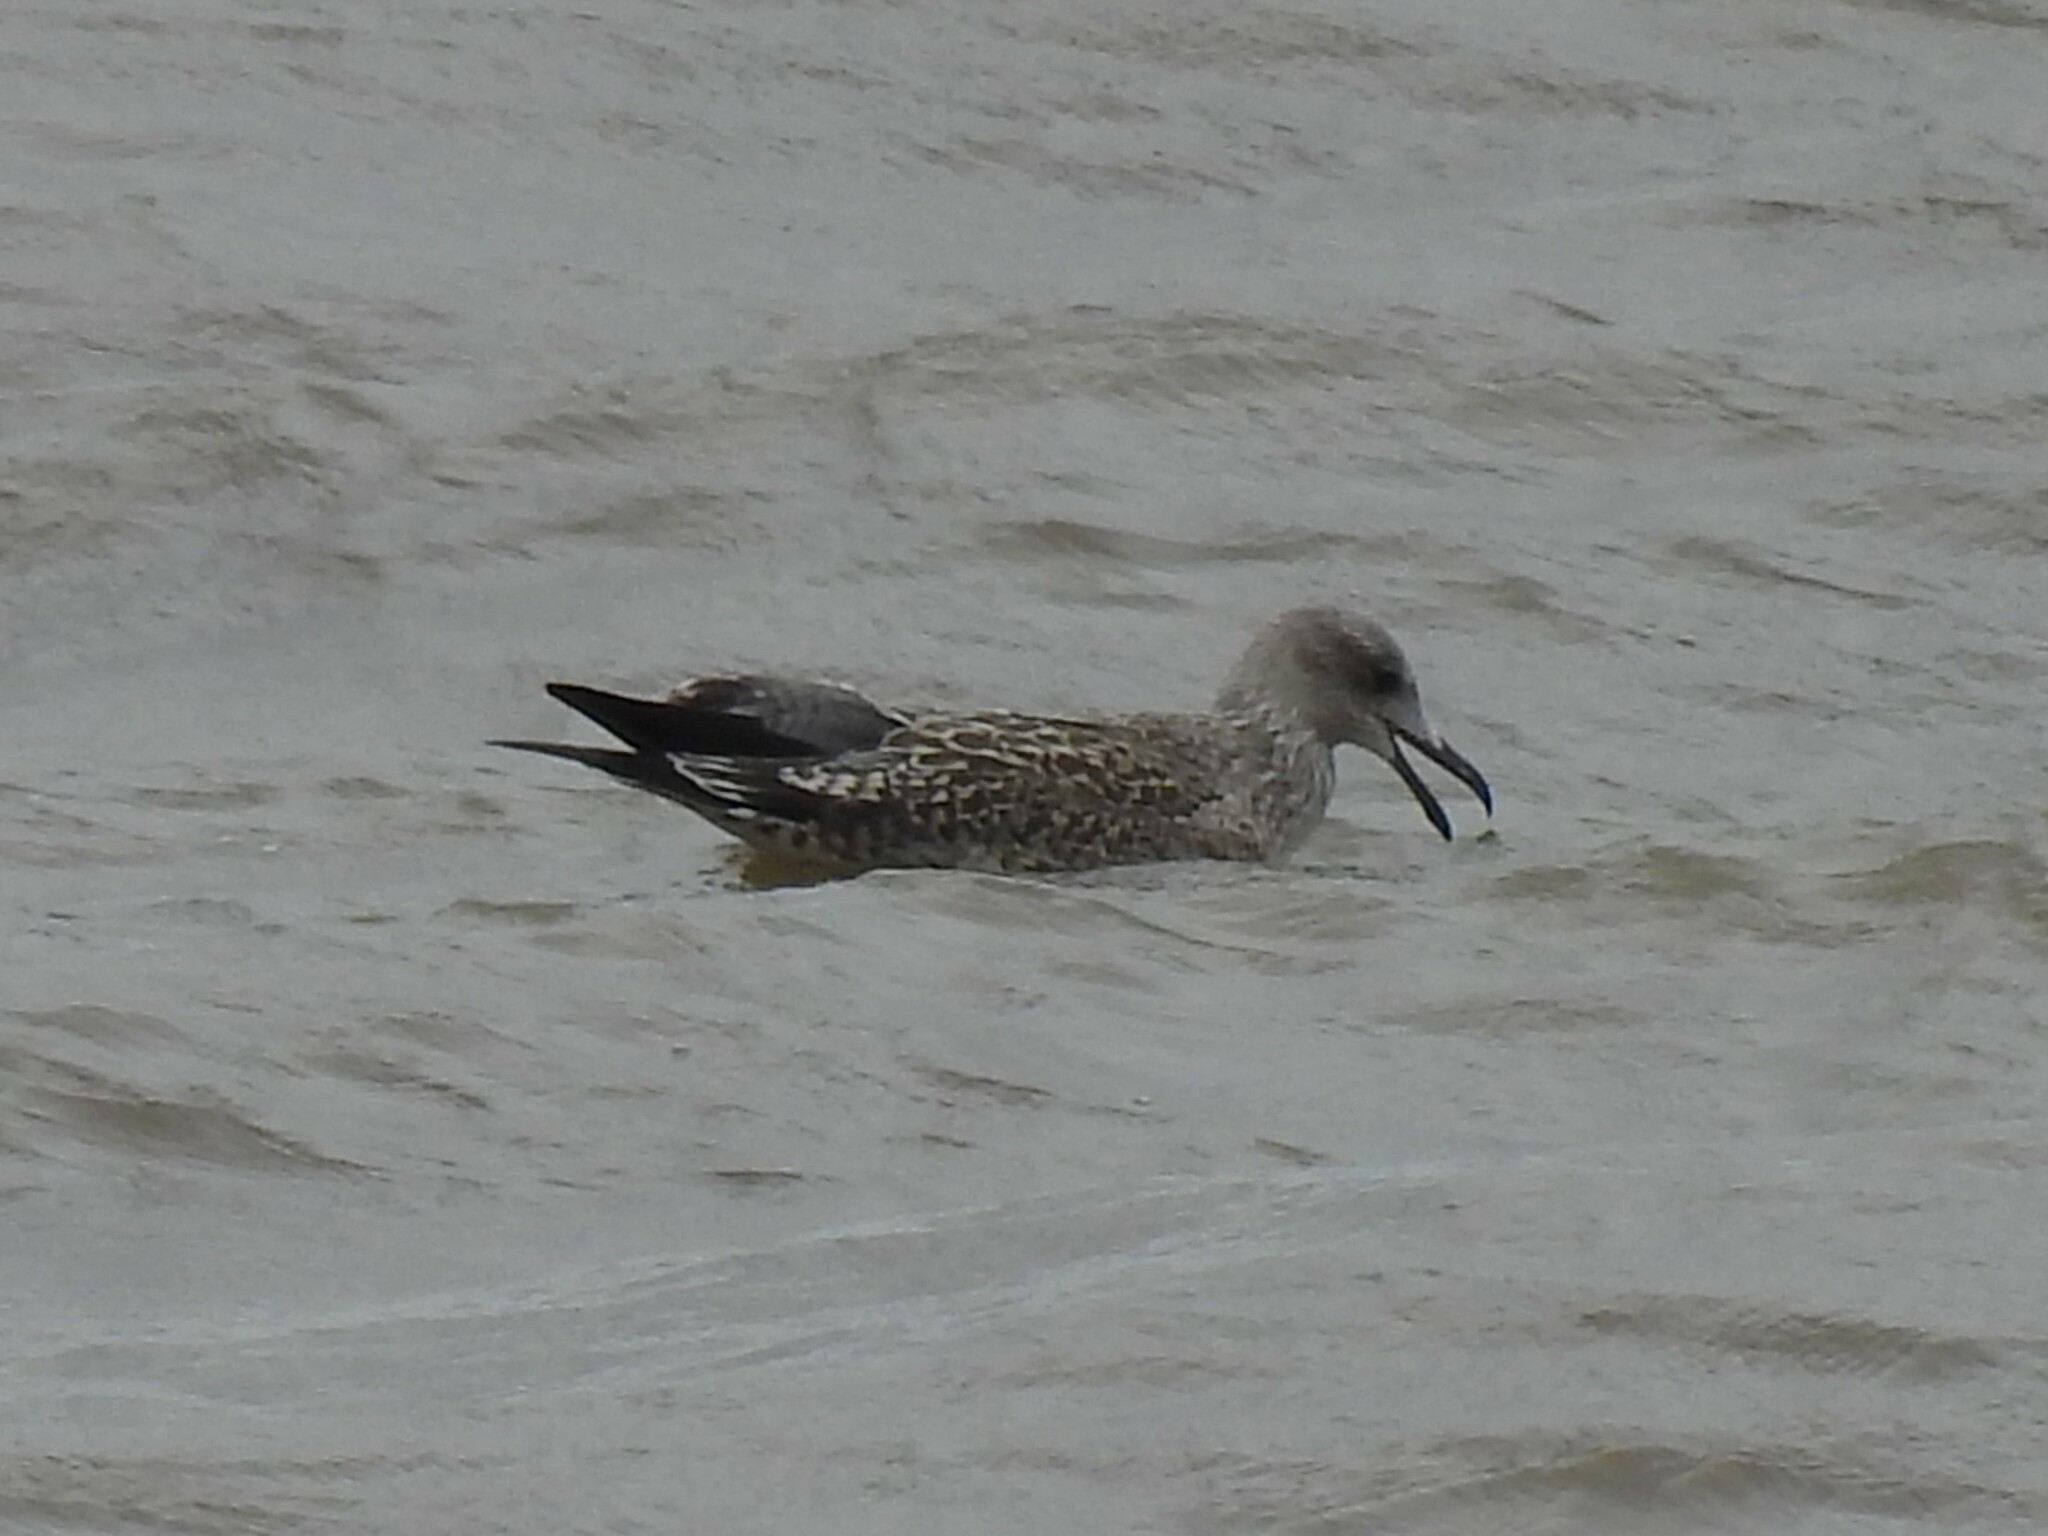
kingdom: Animalia
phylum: Chordata
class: Aves
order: Charadriiformes
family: Laridae
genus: Larus
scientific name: Larus fuscus
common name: Lesser black-backed gull
